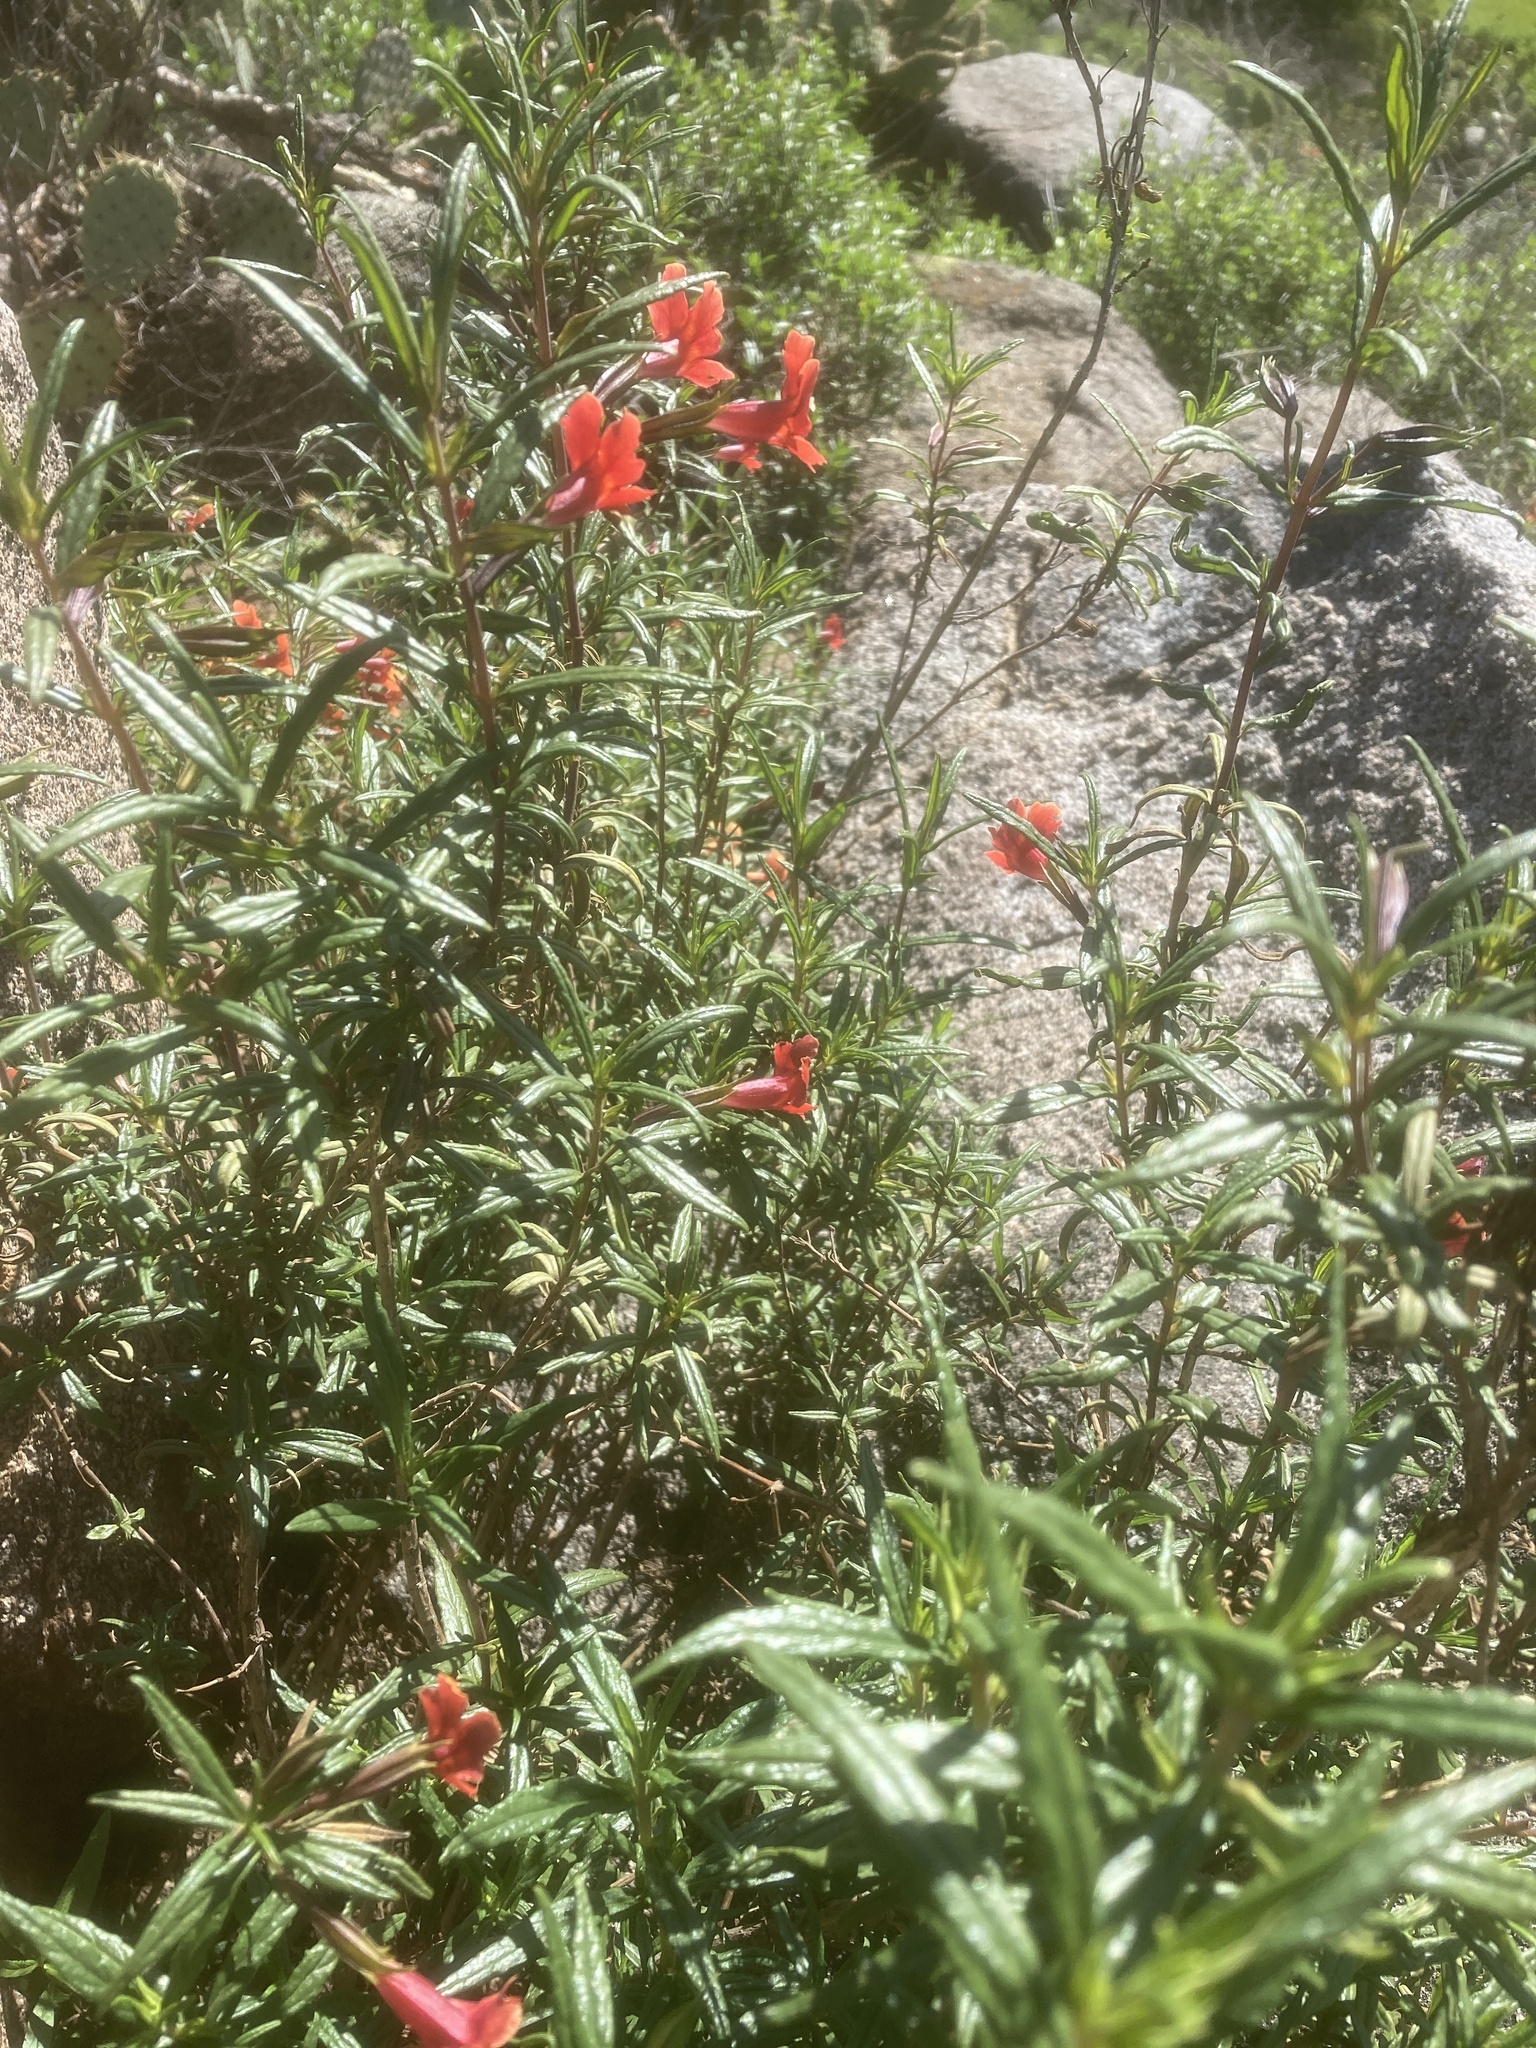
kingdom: Plantae
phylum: Tracheophyta
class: Magnoliopsida
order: Lamiales
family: Phrymaceae
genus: Diplacus
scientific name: Diplacus puniceus
